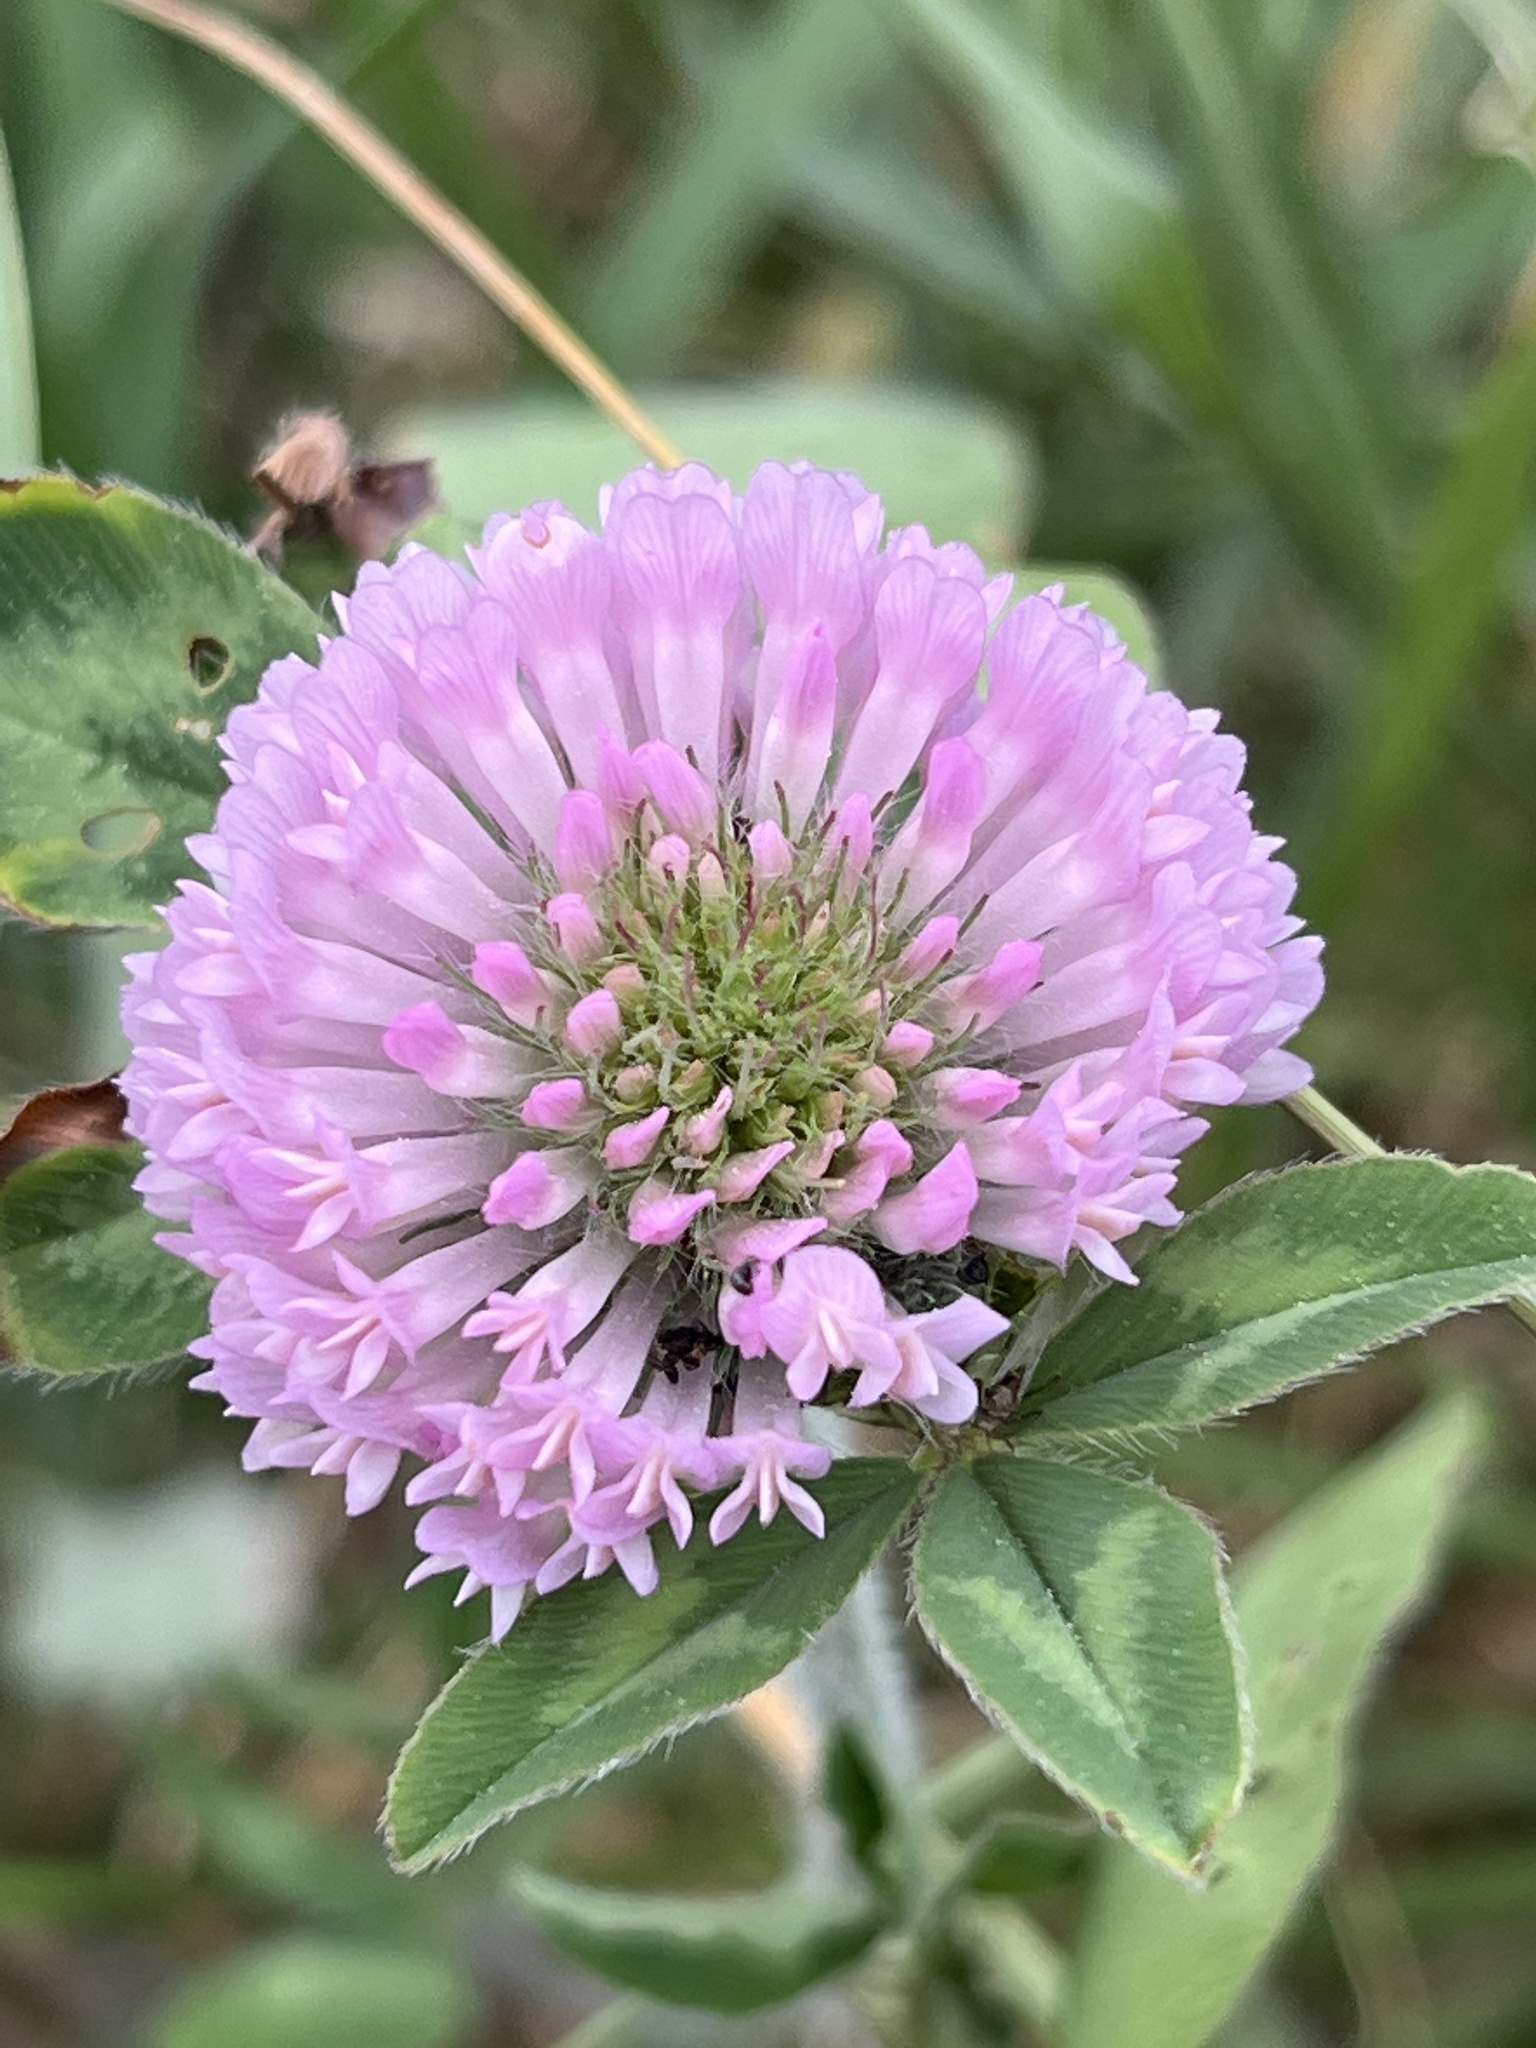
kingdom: Plantae
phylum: Tracheophyta
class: Magnoliopsida
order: Fabales
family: Fabaceae
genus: Trifolium
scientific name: Trifolium pratense
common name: Red clover
